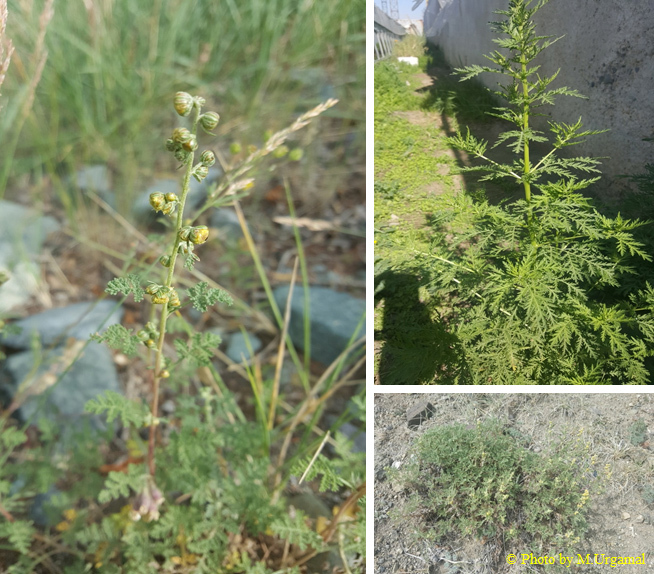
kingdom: Plantae
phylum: Tracheophyta
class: Magnoliopsida
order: Asterales
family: Asteraceae
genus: Artemisia
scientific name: Artemisia gmelinii
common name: Gmelin's wormwood
